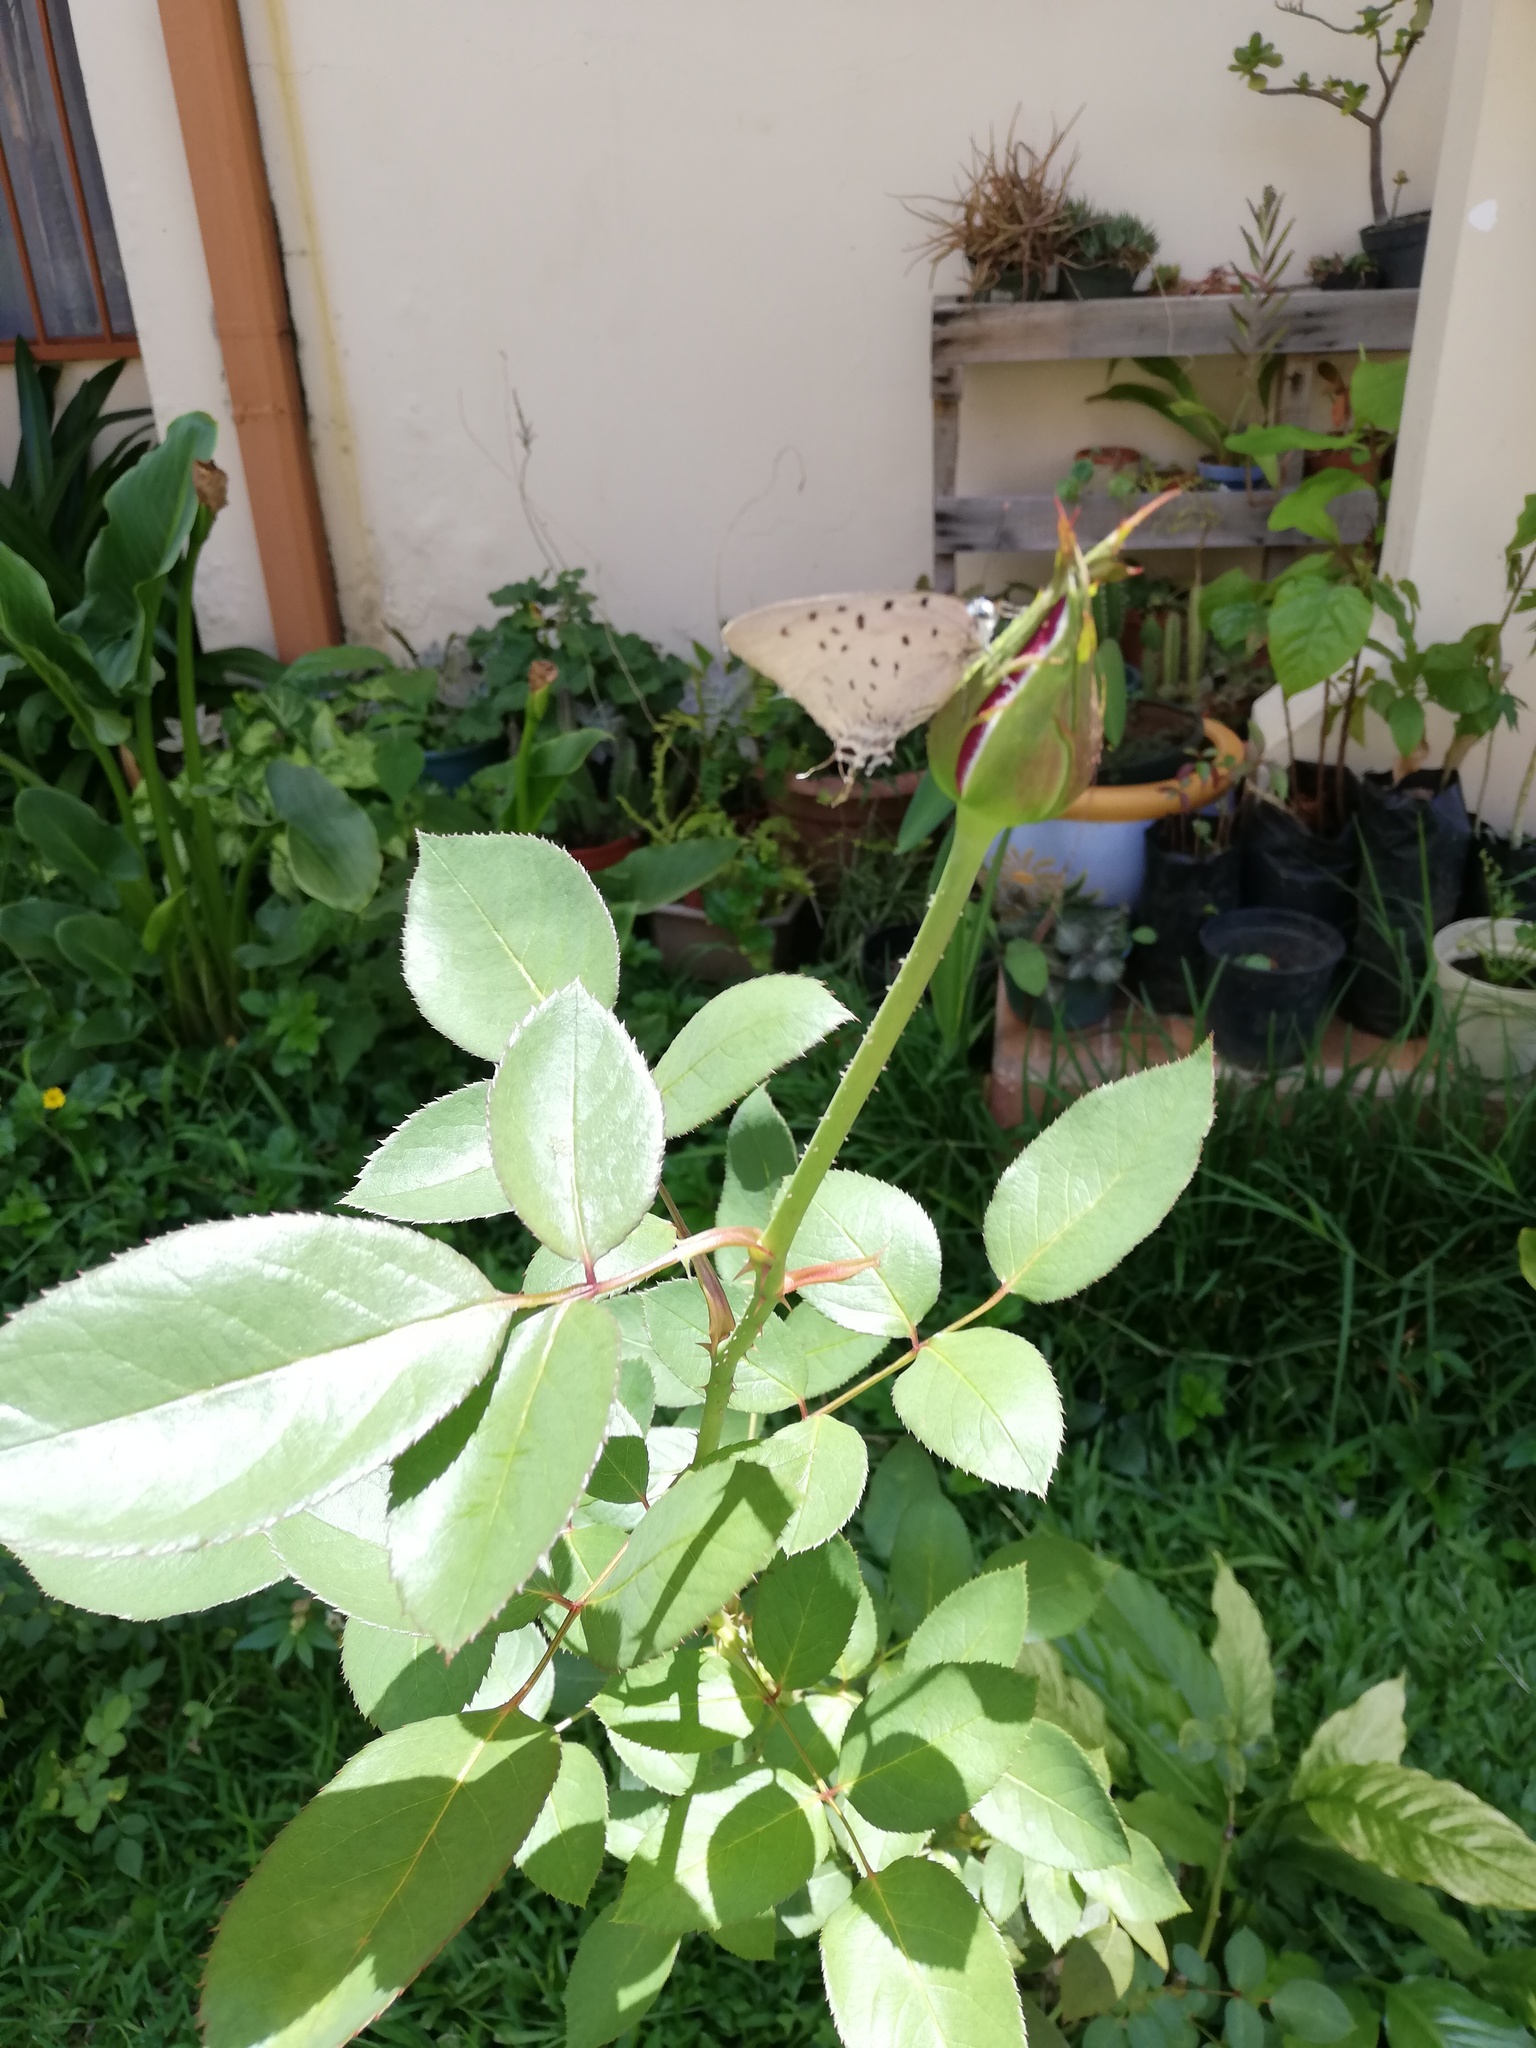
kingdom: Animalia
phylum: Arthropoda
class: Insecta
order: Lepidoptera
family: Lycaenidae
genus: Pseudolycaena
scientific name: Pseudolycaena damo
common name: Sky-blue hairstreak
